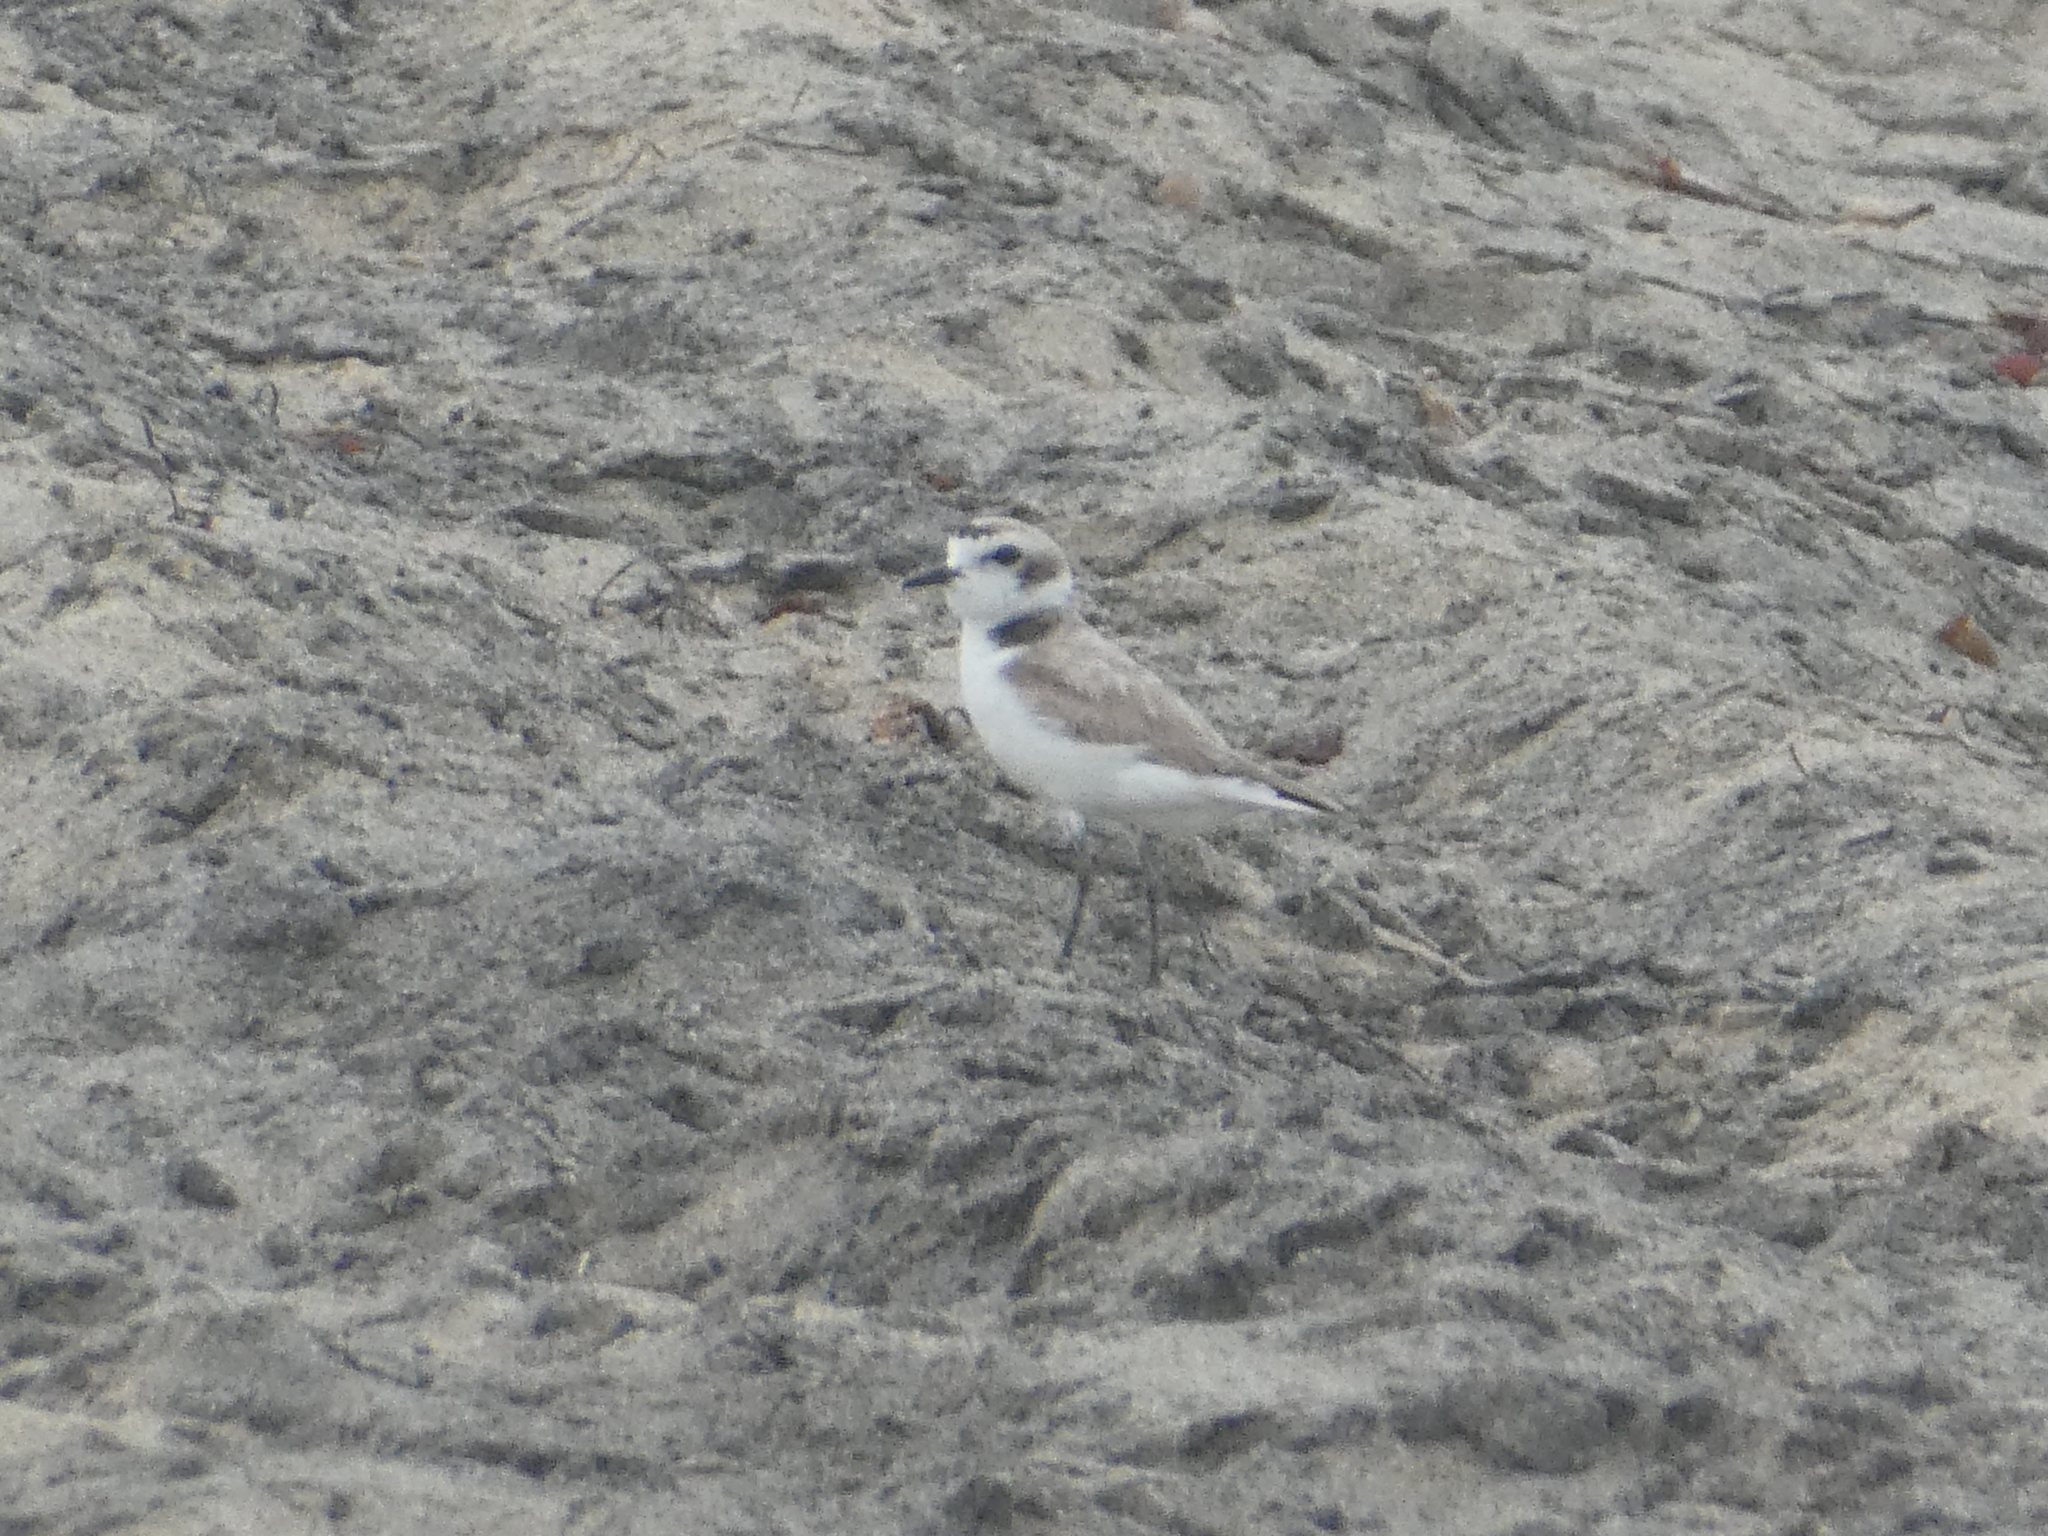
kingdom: Animalia
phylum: Chordata
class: Aves
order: Charadriiformes
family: Charadriidae
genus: Anarhynchus
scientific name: Anarhynchus
